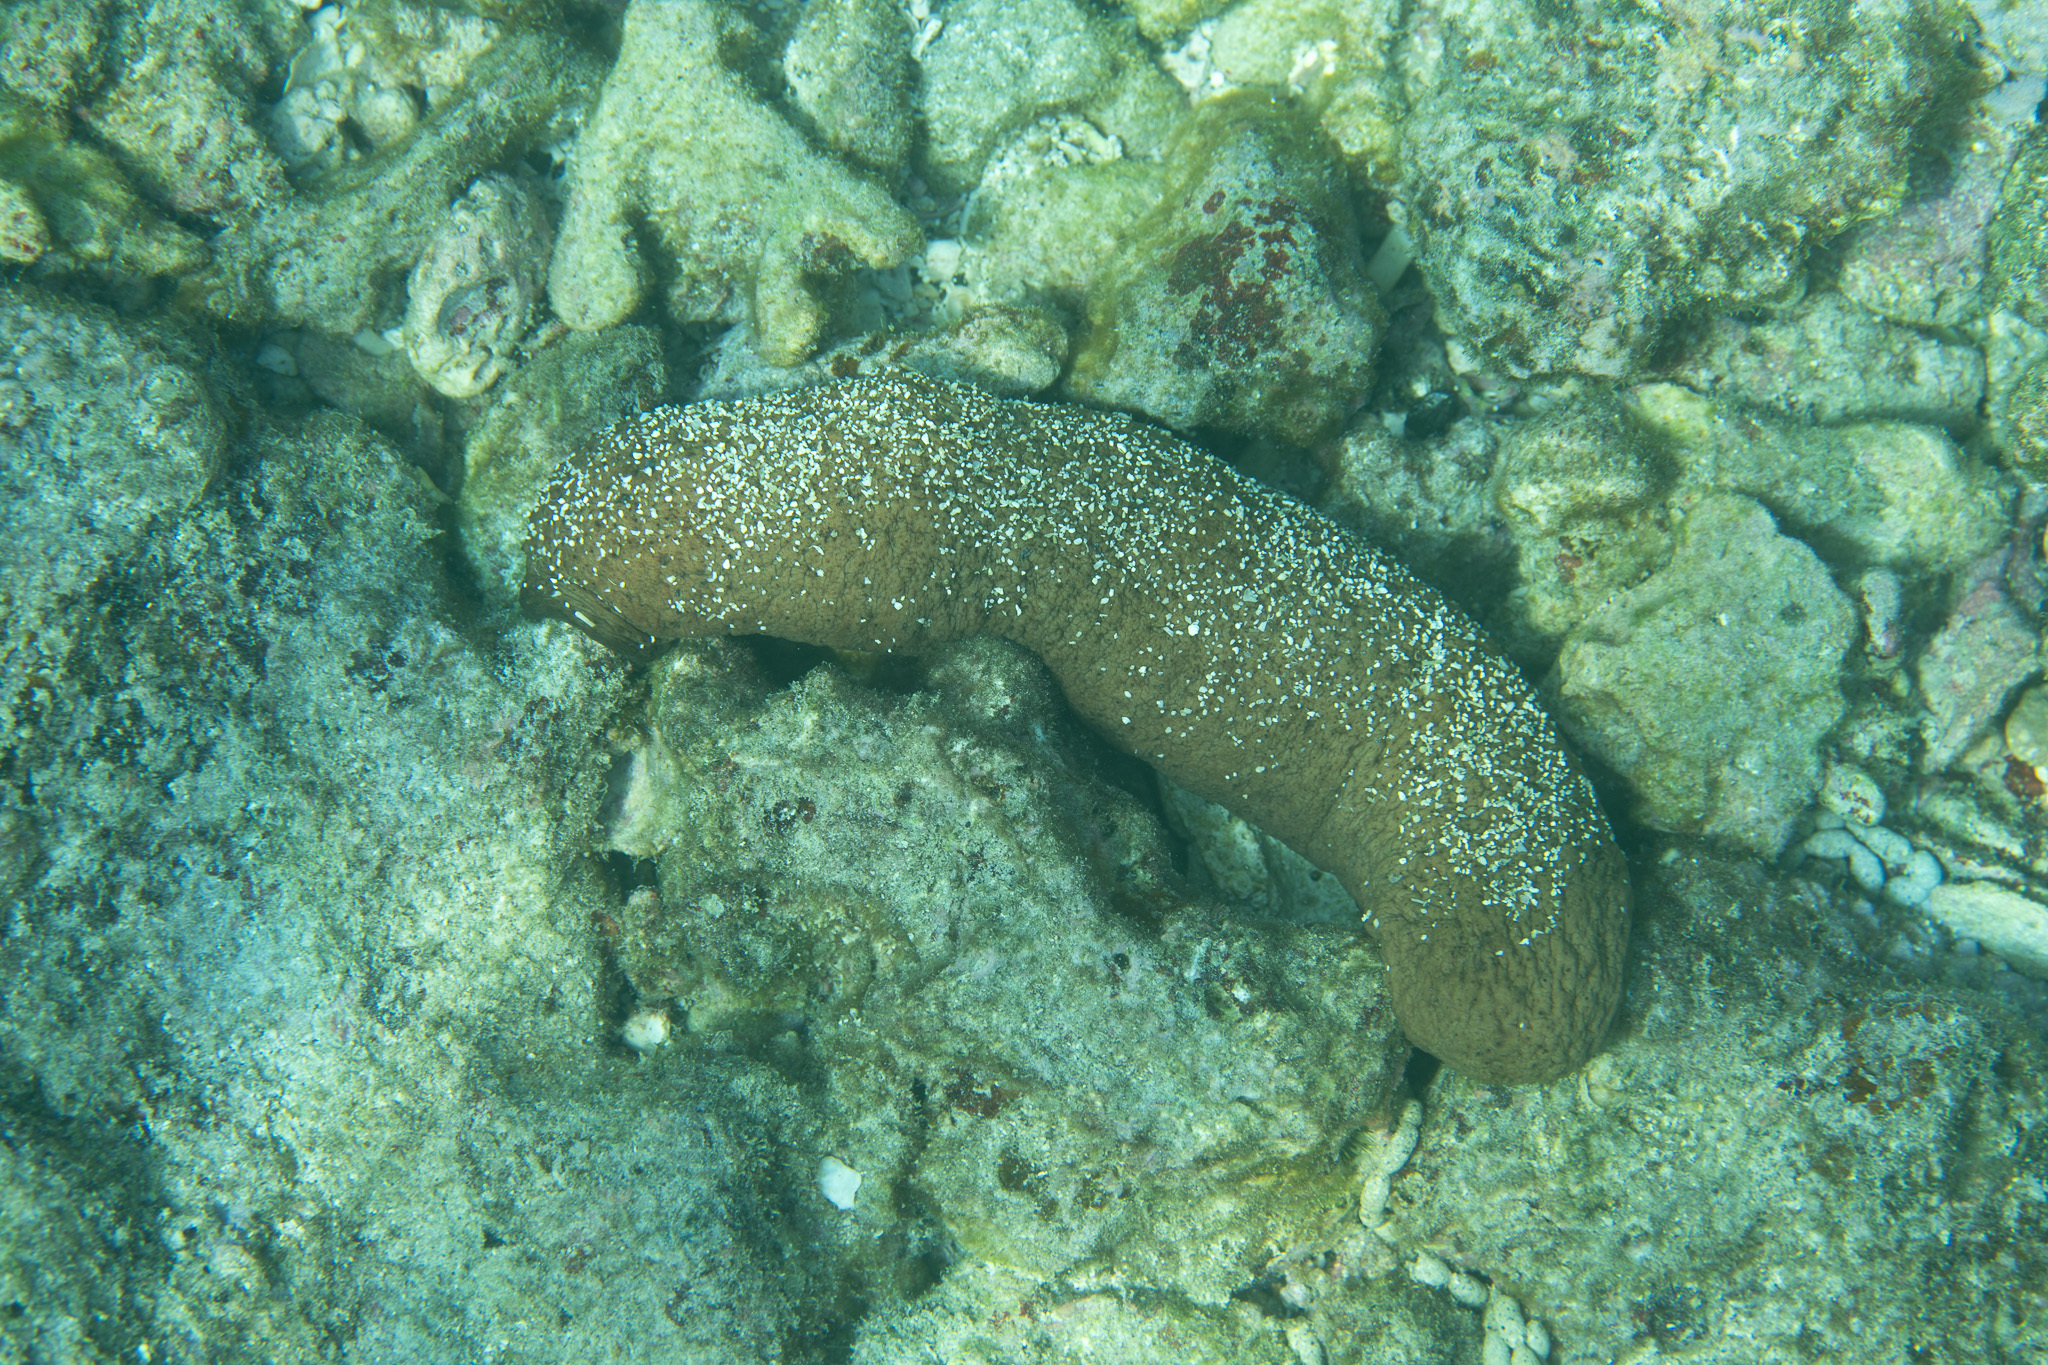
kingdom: Animalia
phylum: Echinodermata
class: Holothuroidea
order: Holothuriida
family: Holothuriidae
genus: Actinopyga
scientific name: Actinopyga obesa
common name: Plump sea cucumber
